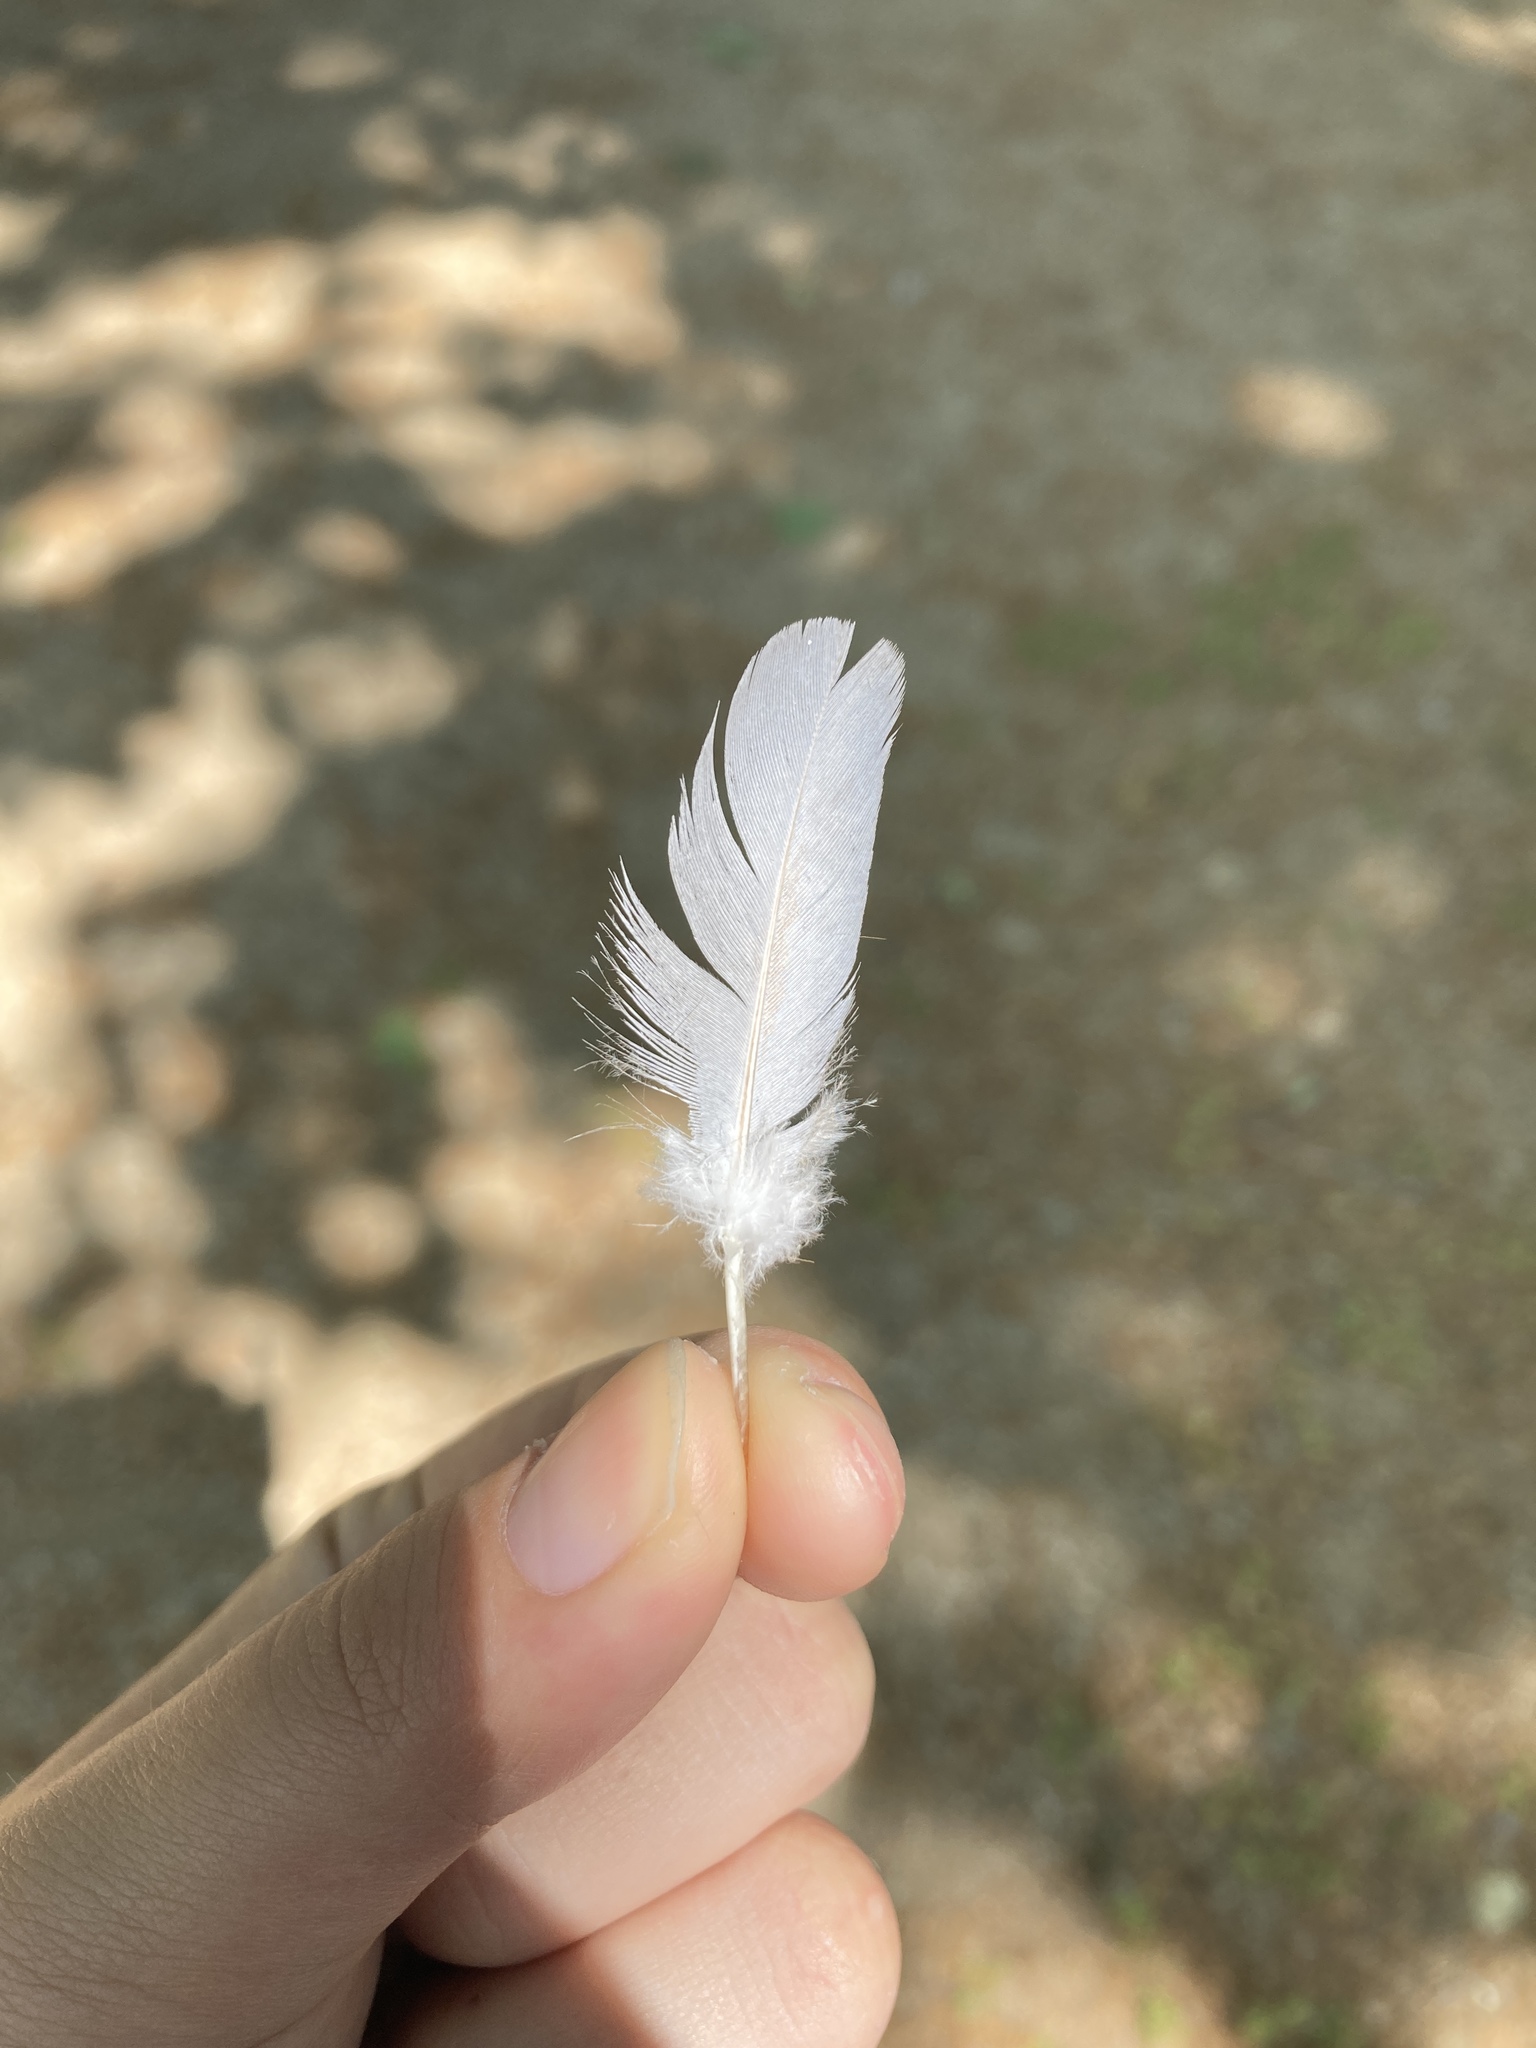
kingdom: Animalia
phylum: Chordata
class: Aves
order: Columbiformes
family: Columbidae
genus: Columba
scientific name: Columba livia
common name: Rock pigeon
